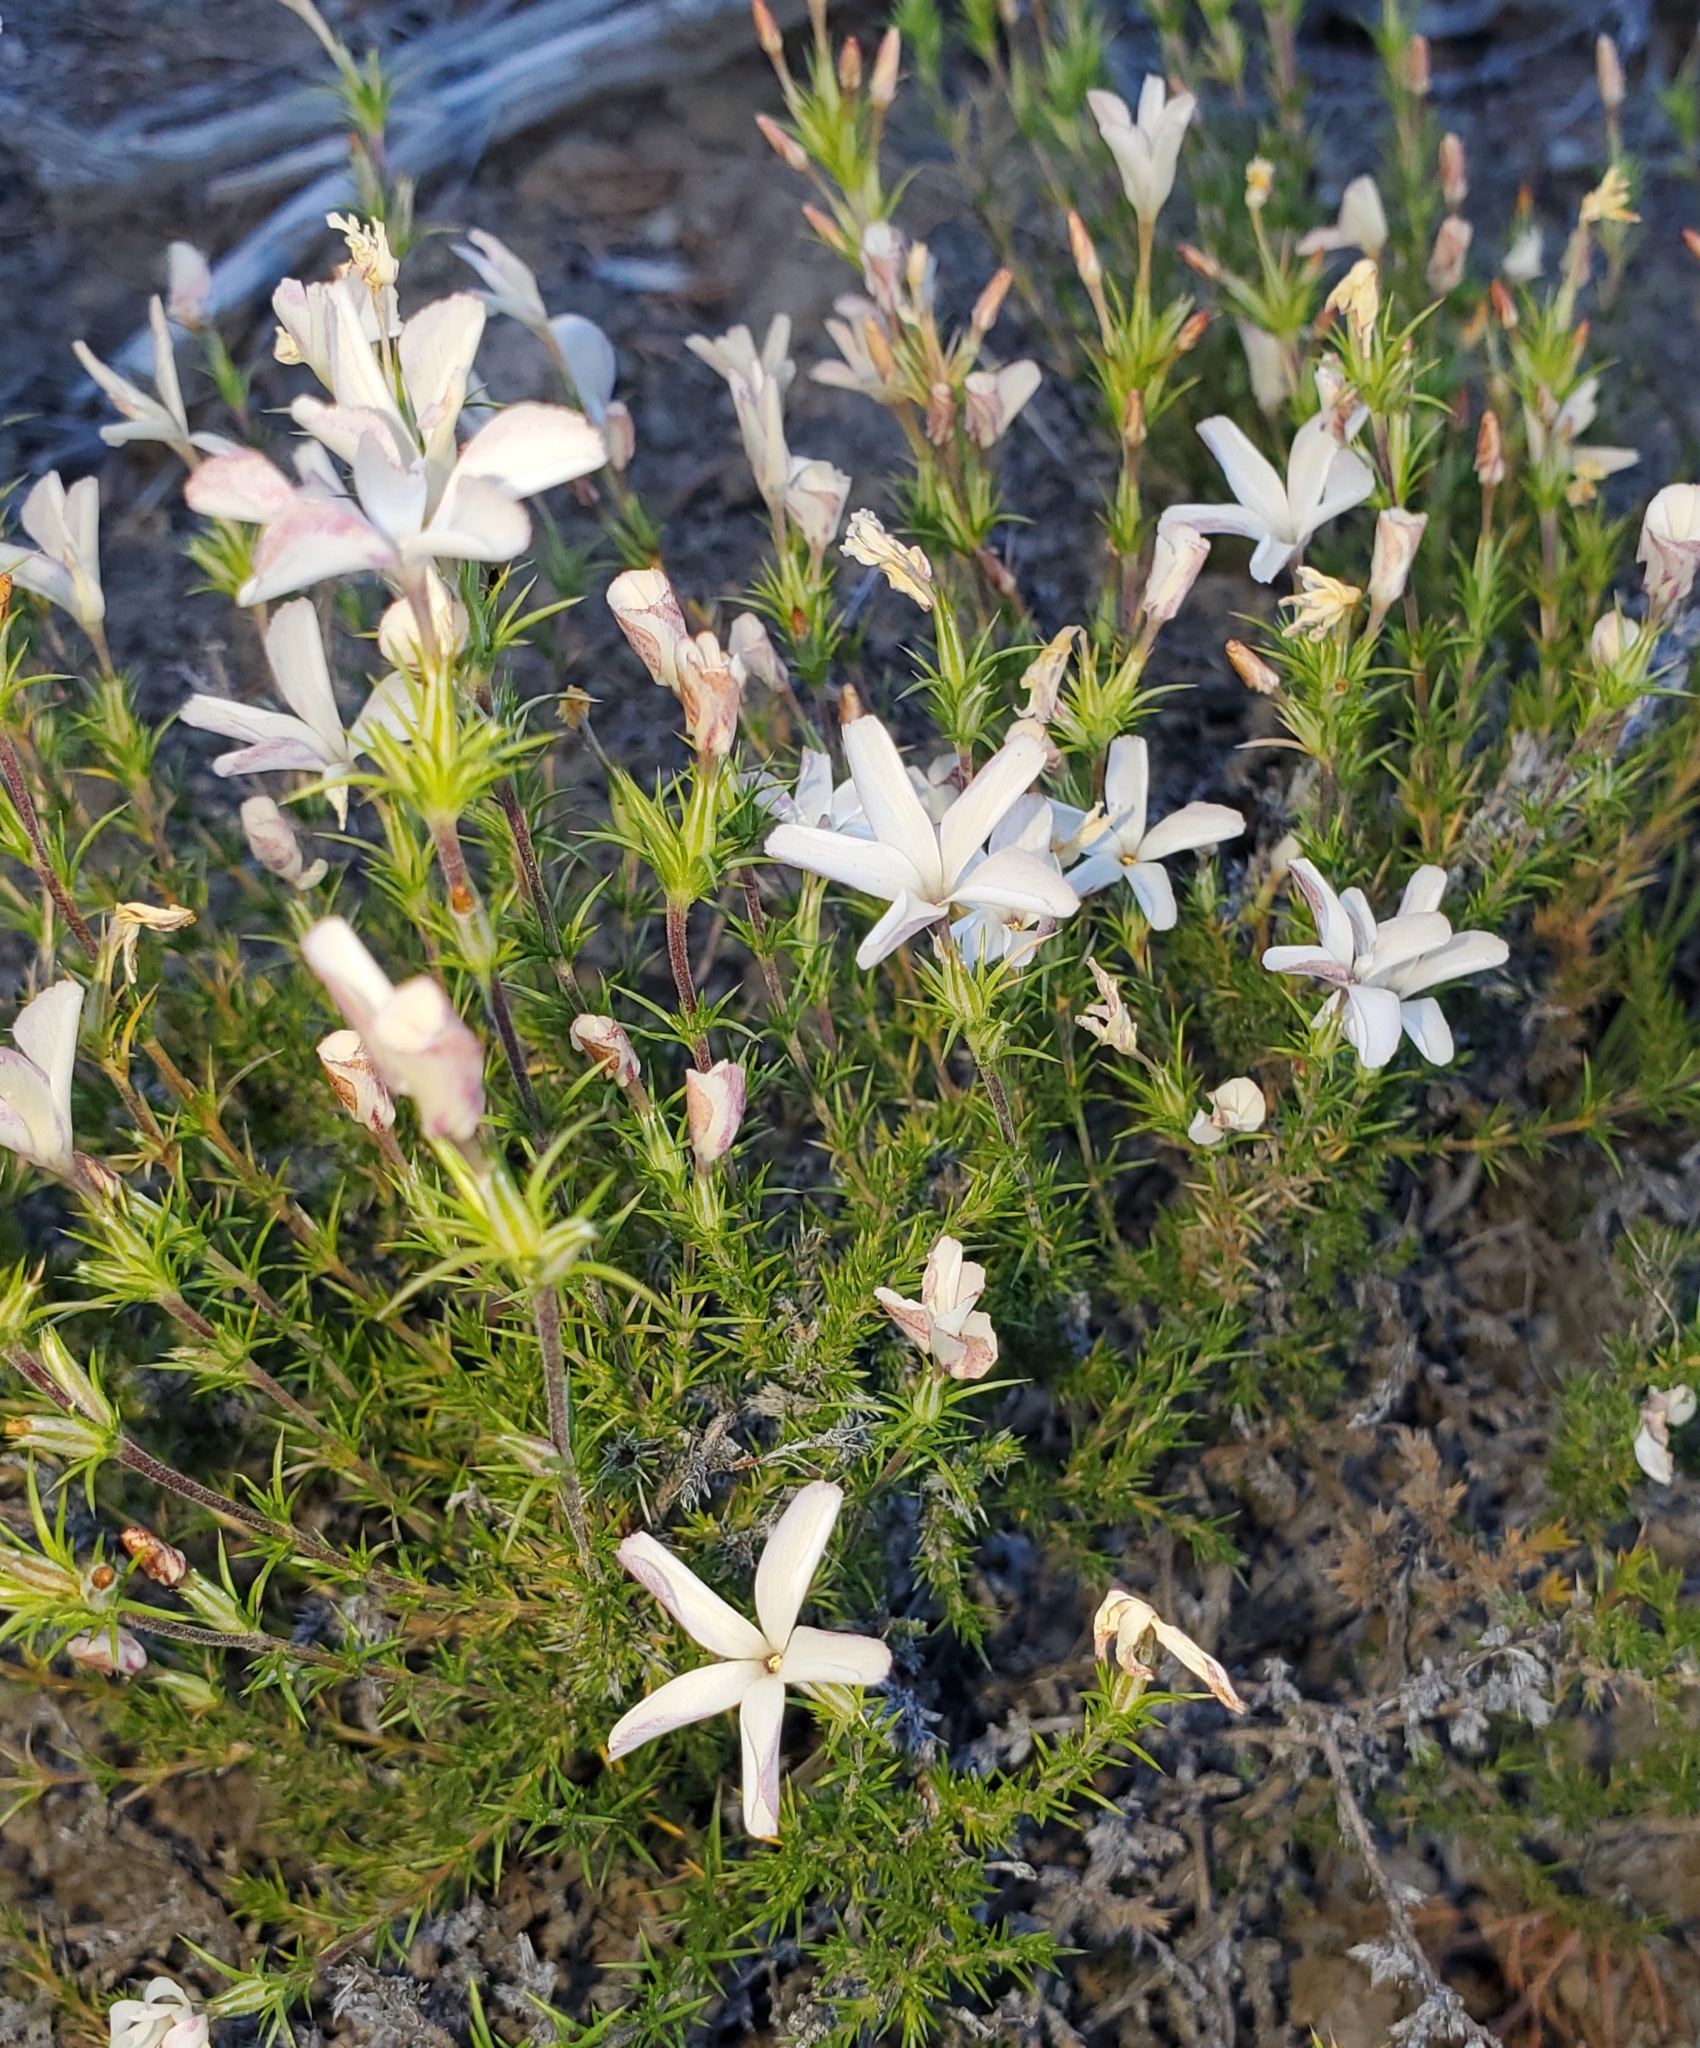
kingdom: Plantae
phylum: Tracheophyta
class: Magnoliopsida
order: Ericales
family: Polemoniaceae
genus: Linanthus
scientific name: Linanthus pungens
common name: Granite prickly phlox
